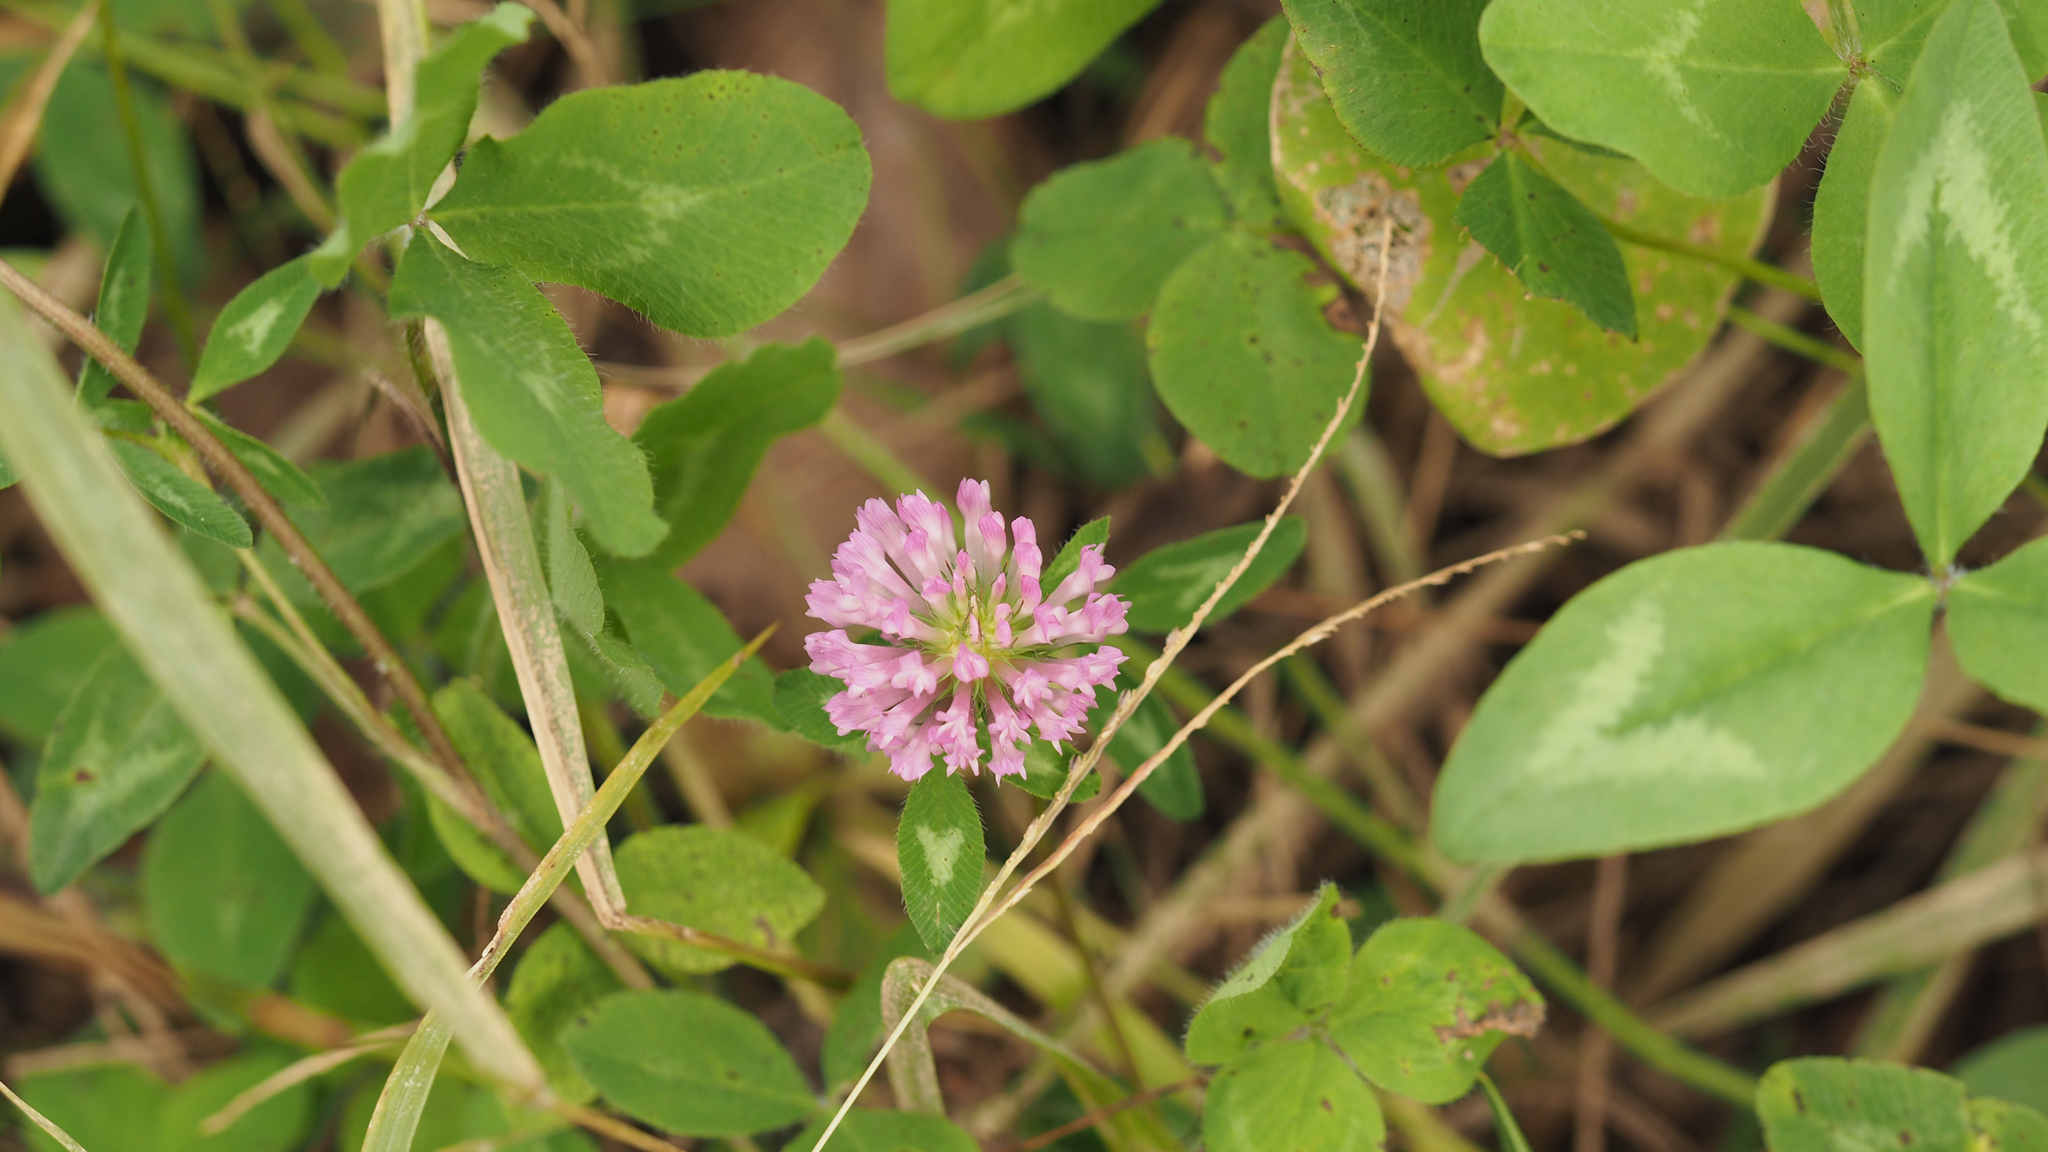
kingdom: Plantae
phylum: Tracheophyta
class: Magnoliopsida
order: Fabales
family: Fabaceae
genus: Trifolium
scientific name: Trifolium pratense
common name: Red clover
